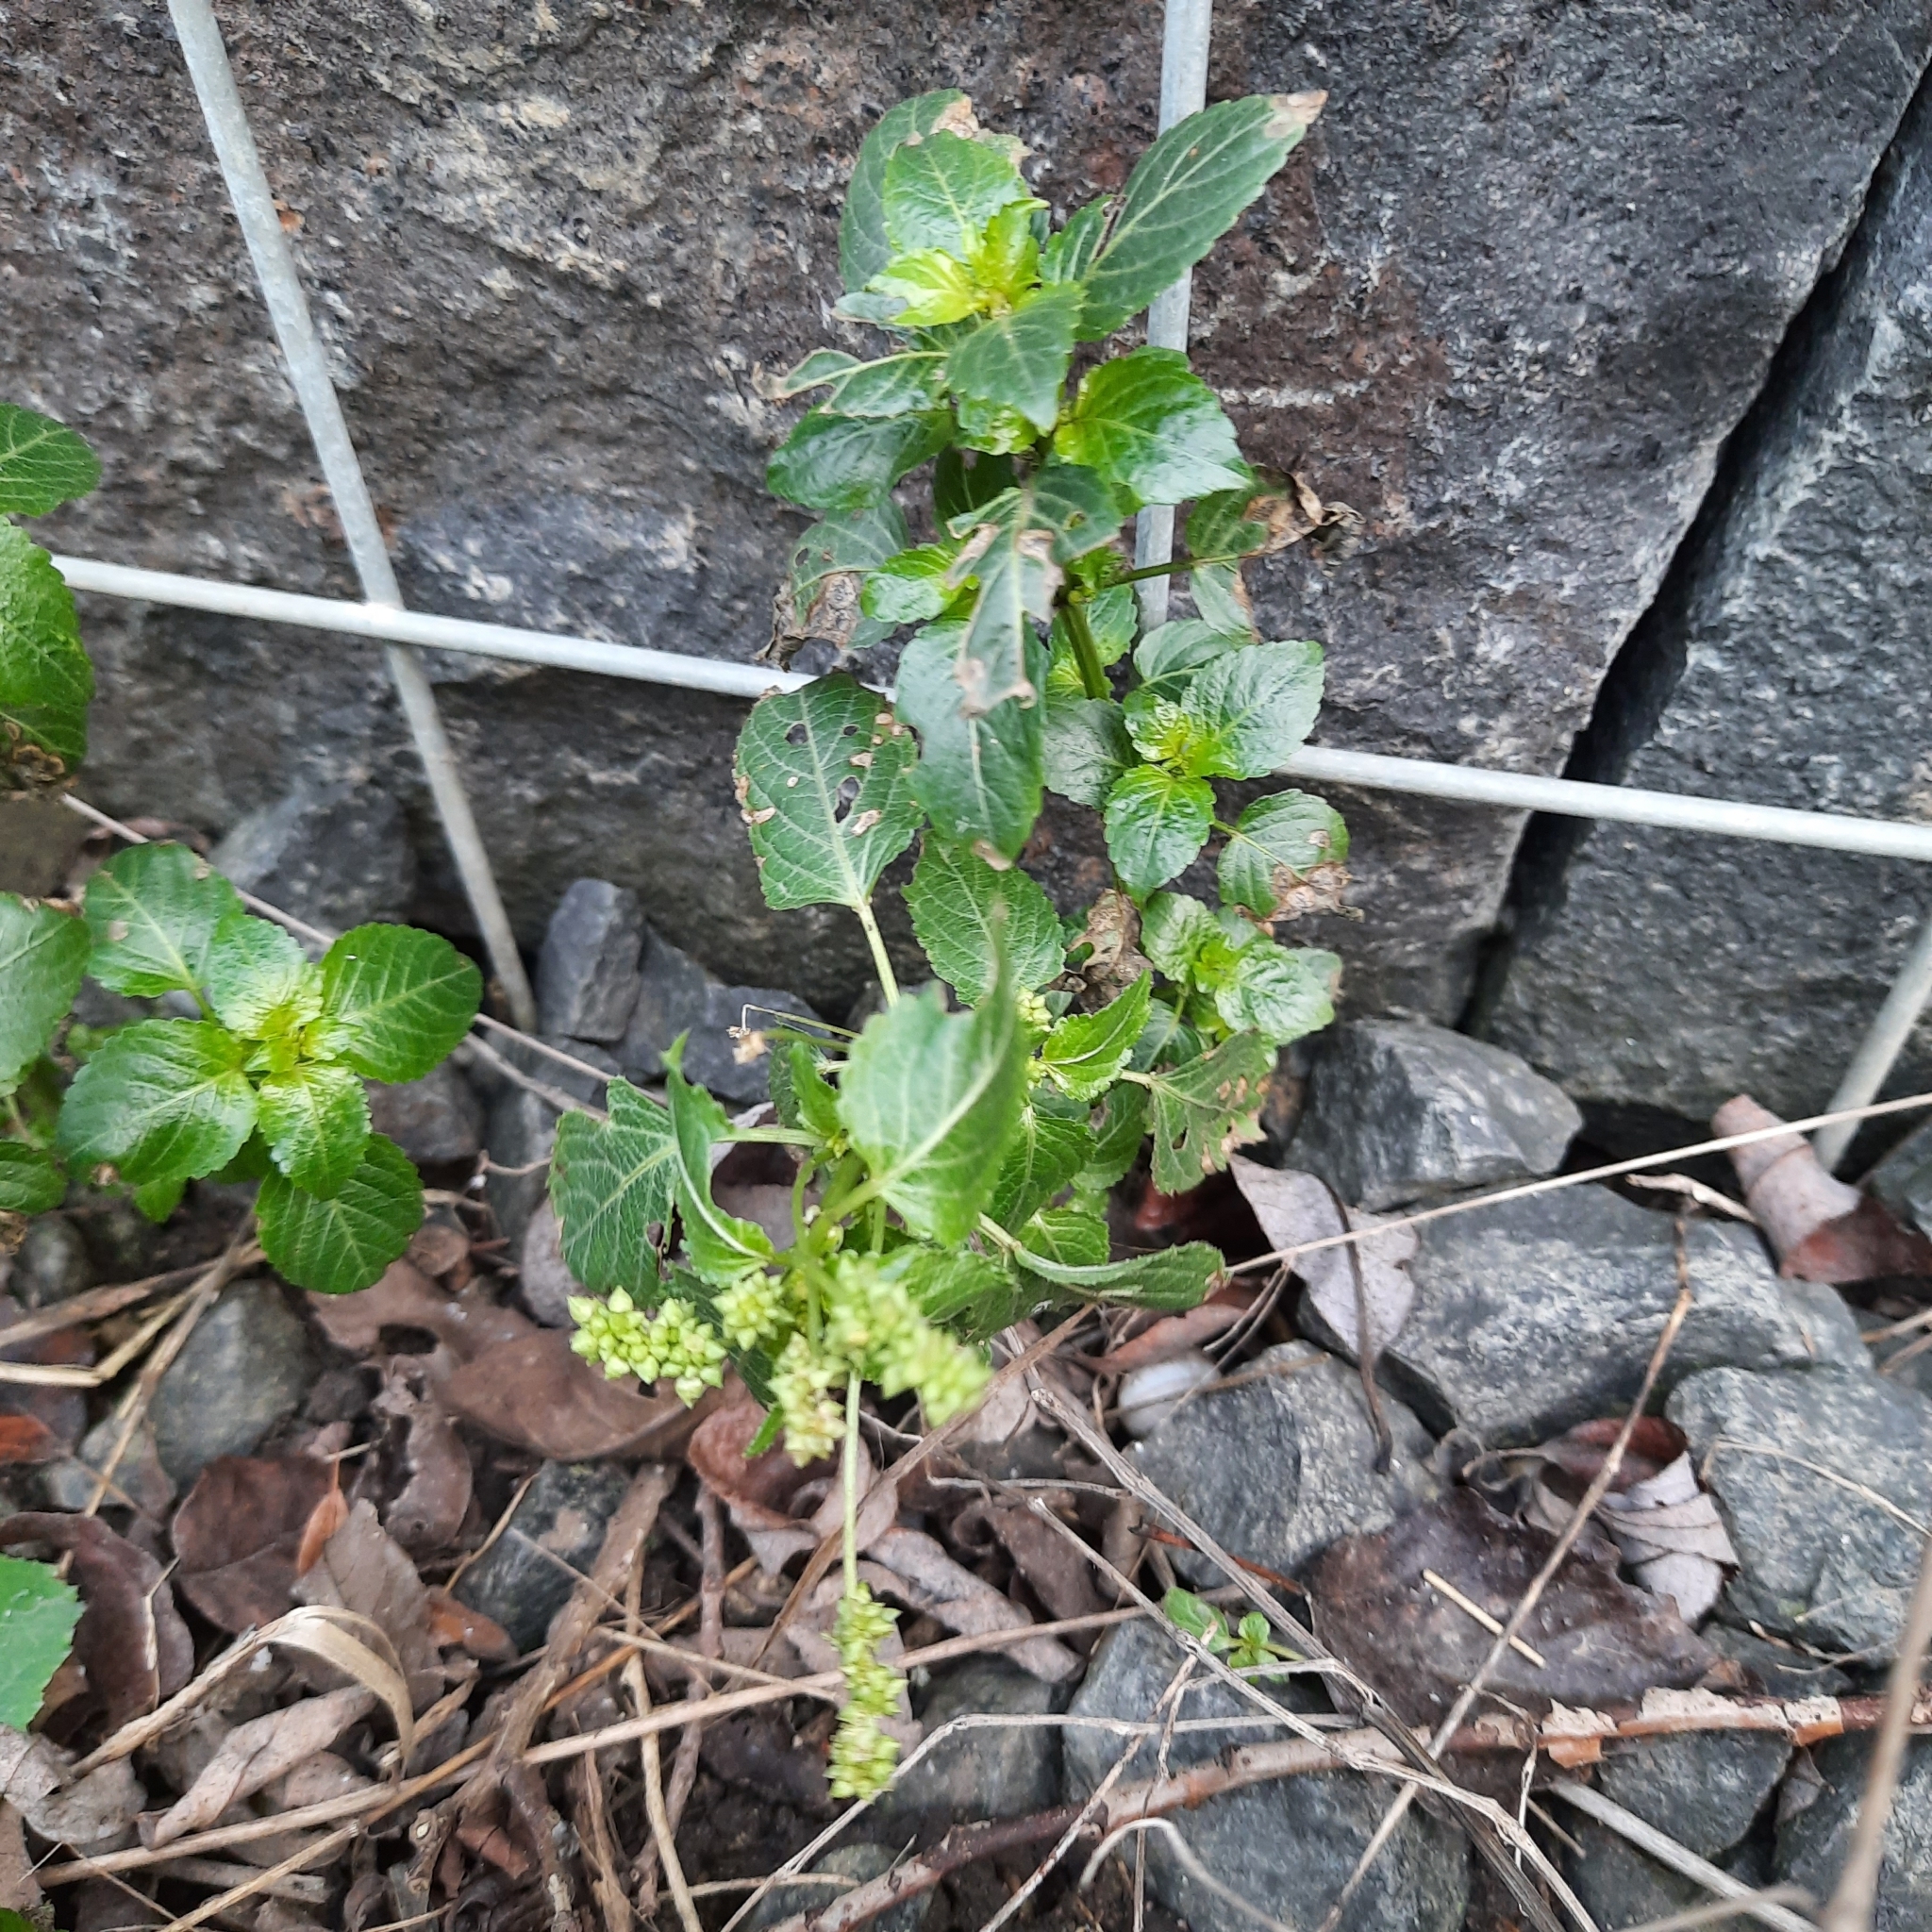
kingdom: Plantae
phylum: Tracheophyta
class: Magnoliopsida
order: Malpighiales
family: Euphorbiaceae
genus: Mercurialis
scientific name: Mercurialis annua
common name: Annual mercury
